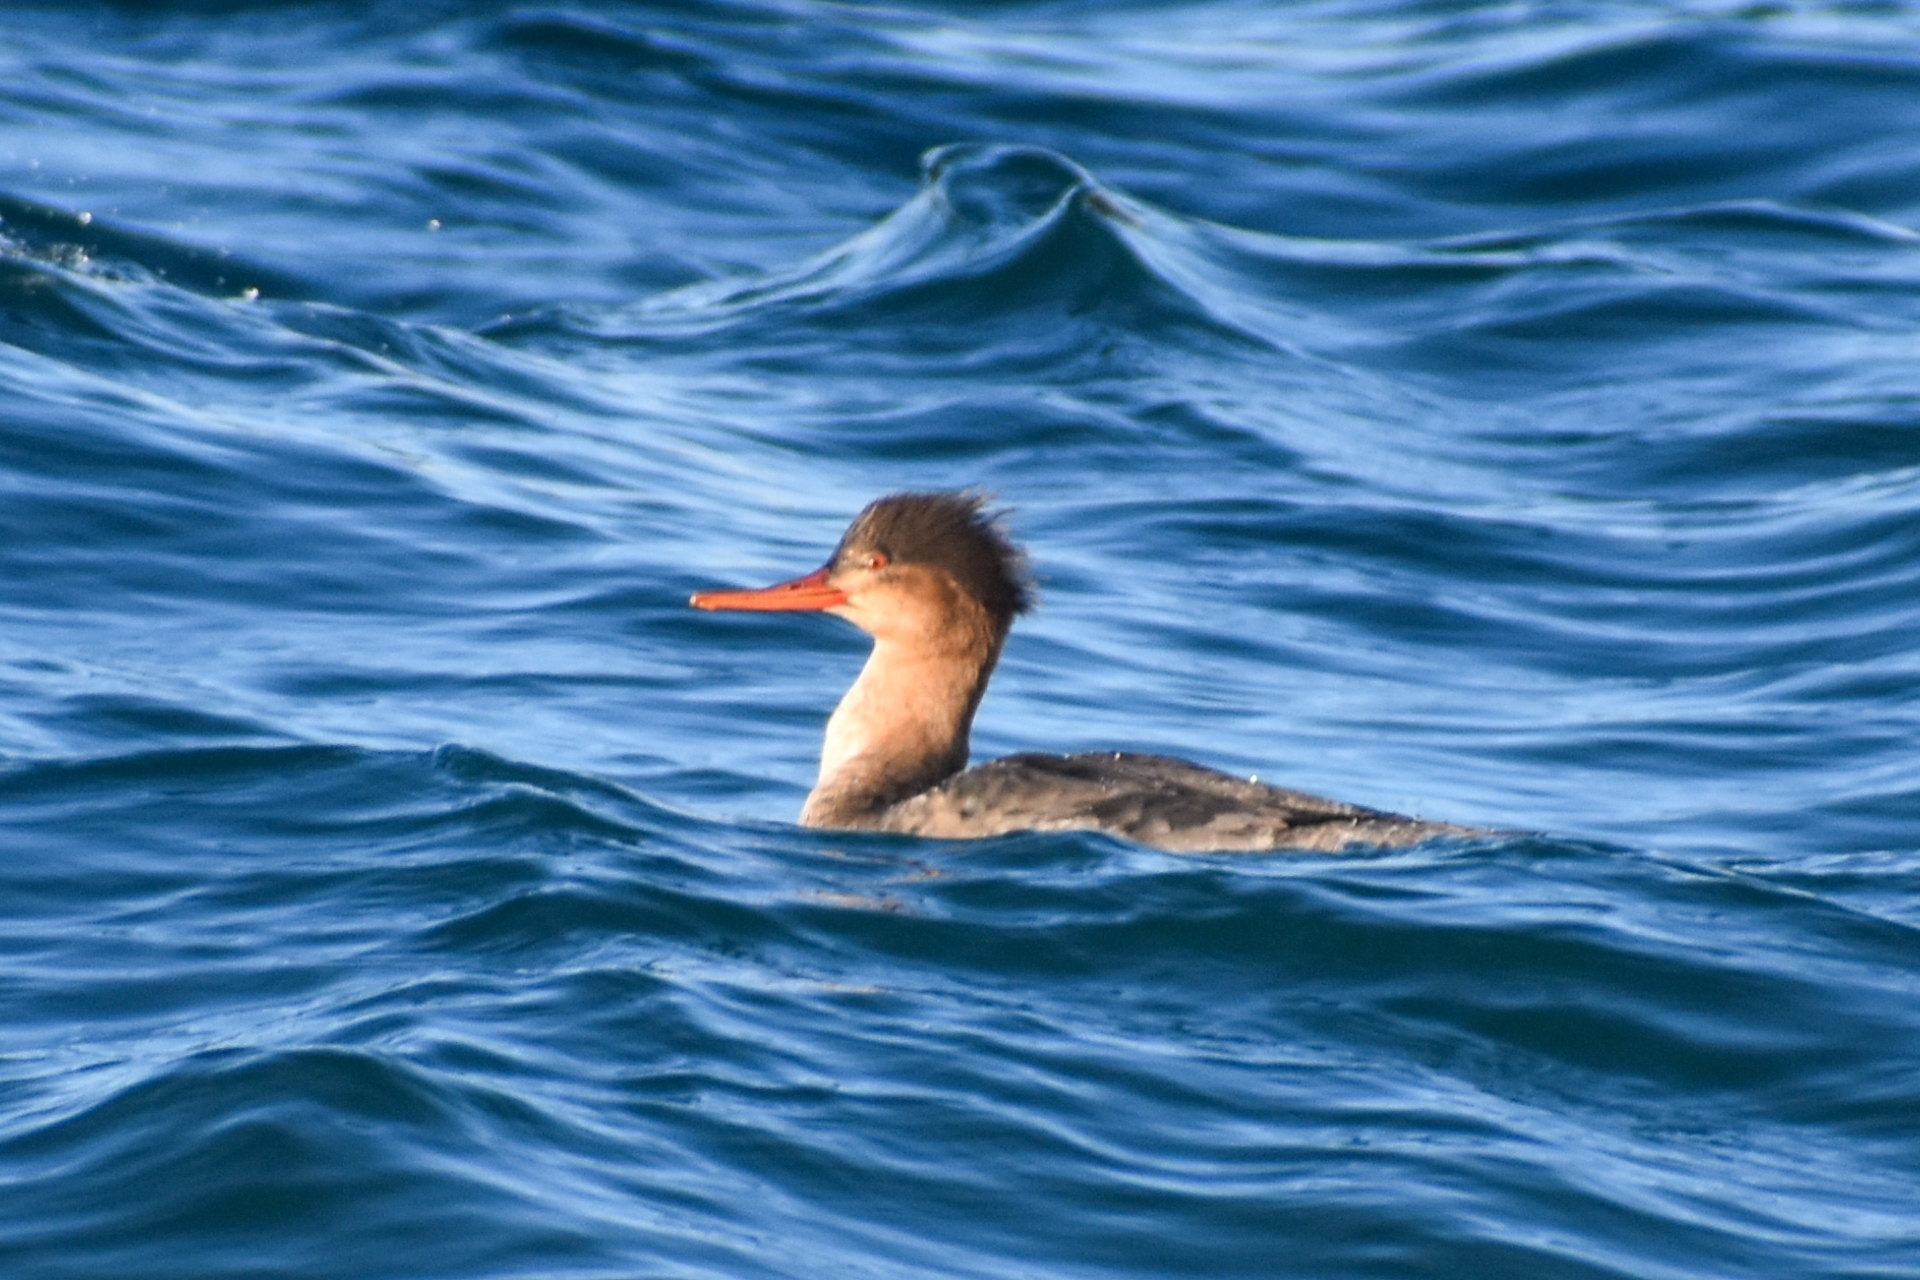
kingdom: Animalia
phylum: Chordata
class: Aves
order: Anseriformes
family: Anatidae
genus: Mergus
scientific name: Mergus serrator
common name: Red-breasted merganser
